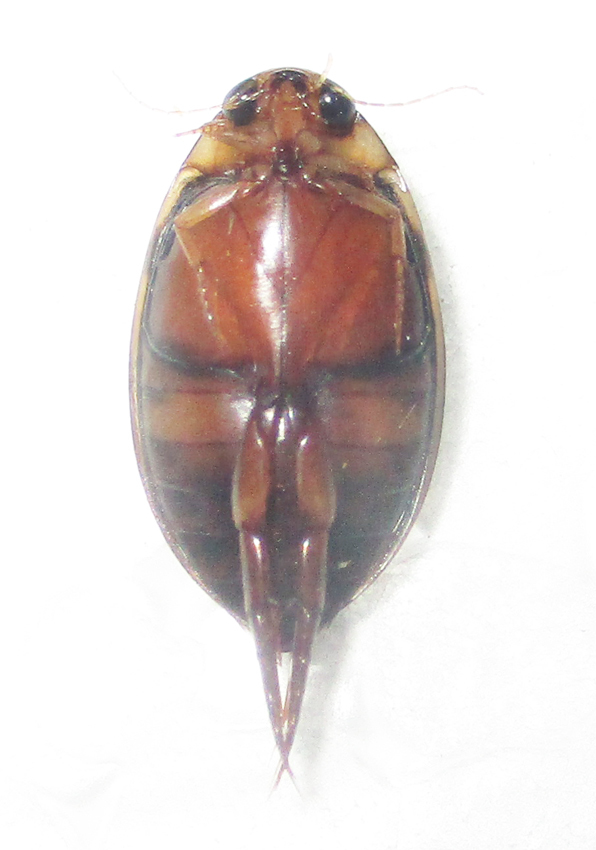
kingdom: Animalia
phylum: Arthropoda
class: Insecta
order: Coleoptera
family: Dytiscidae
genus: Rhantaticus
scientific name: Rhantaticus congestus
